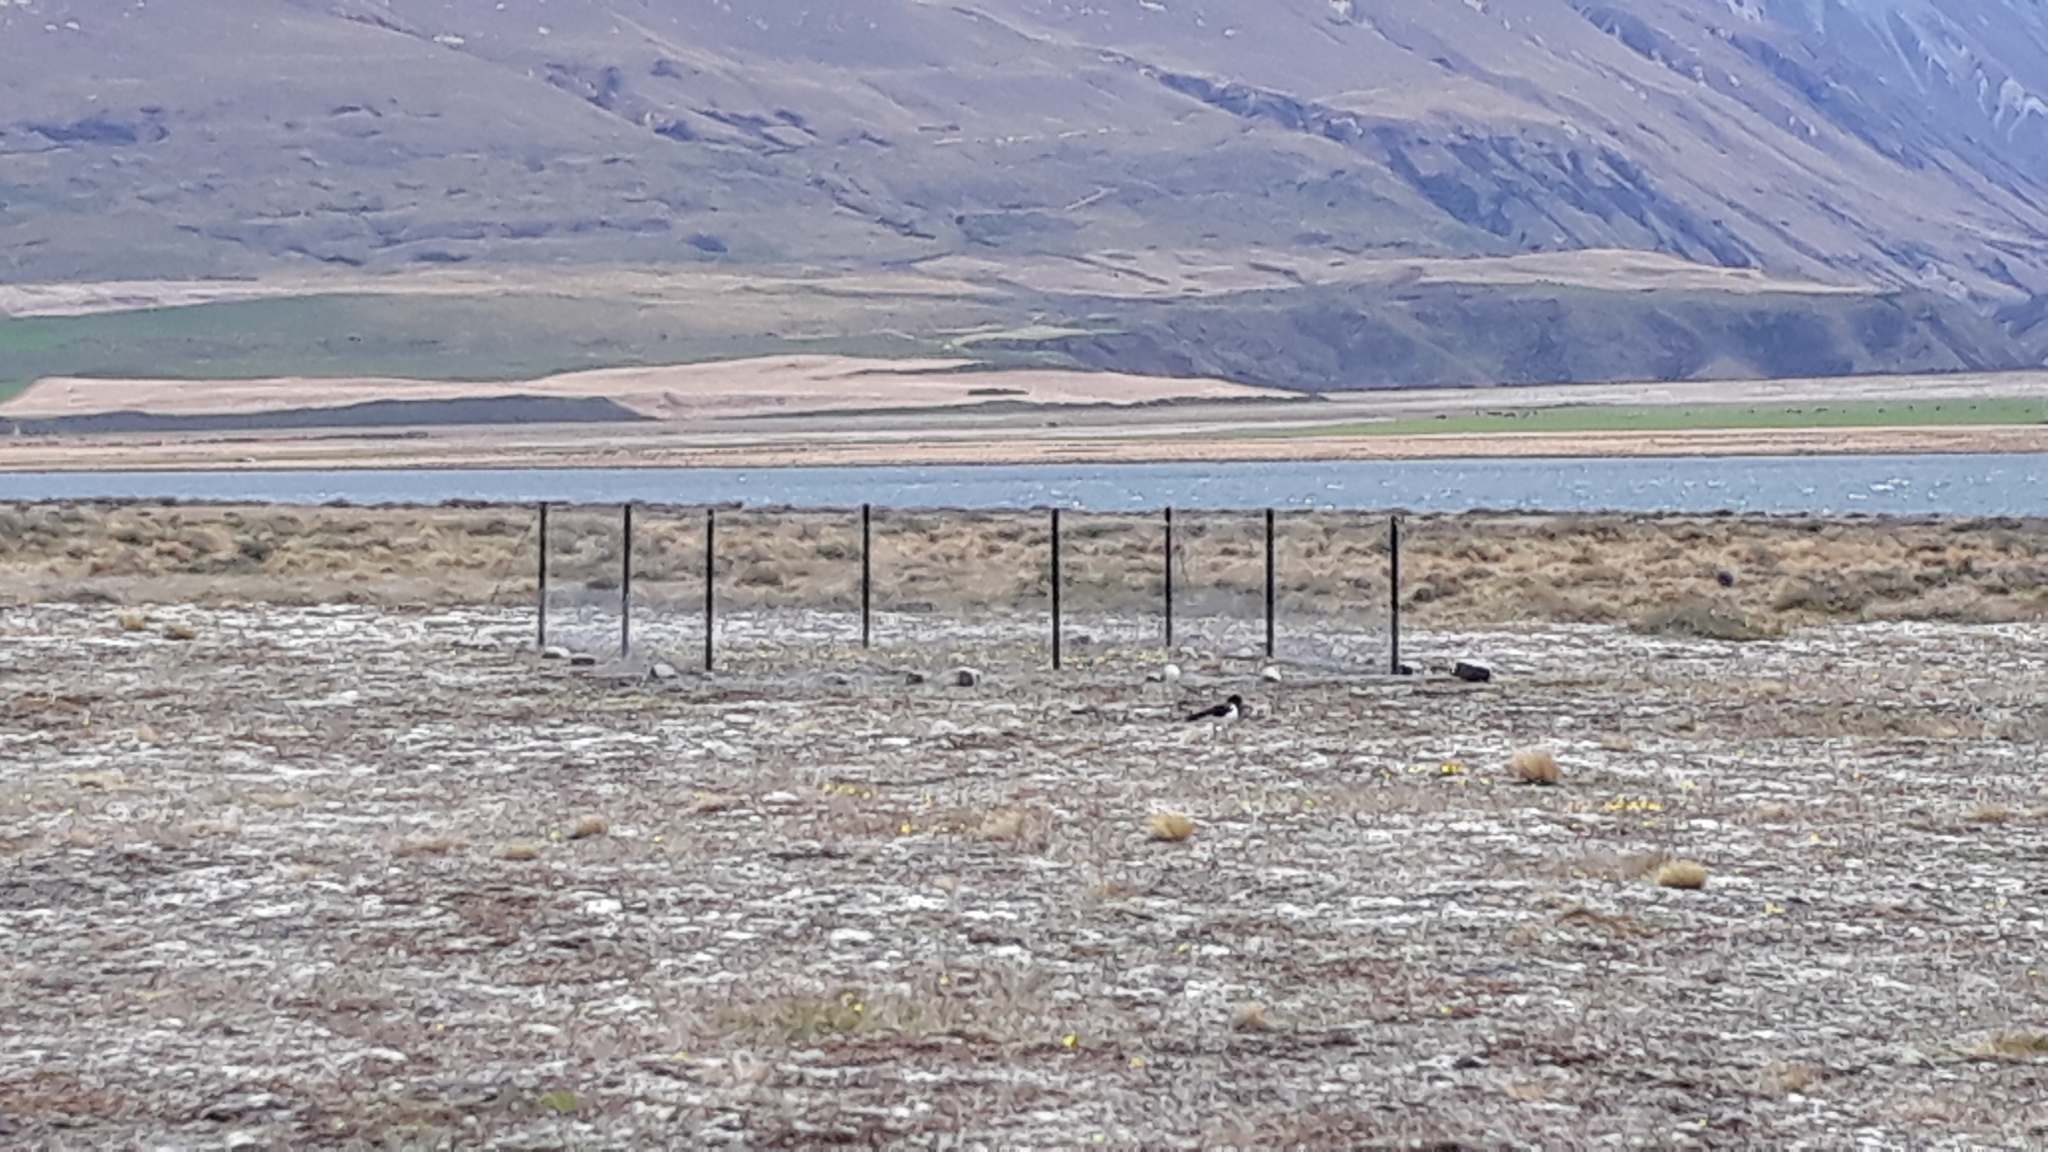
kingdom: Animalia
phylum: Chordata
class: Aves
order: Charadriiformes
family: Haematopodidae
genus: Haematopus
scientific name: Haematopus finschi
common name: South island oystercatcher
